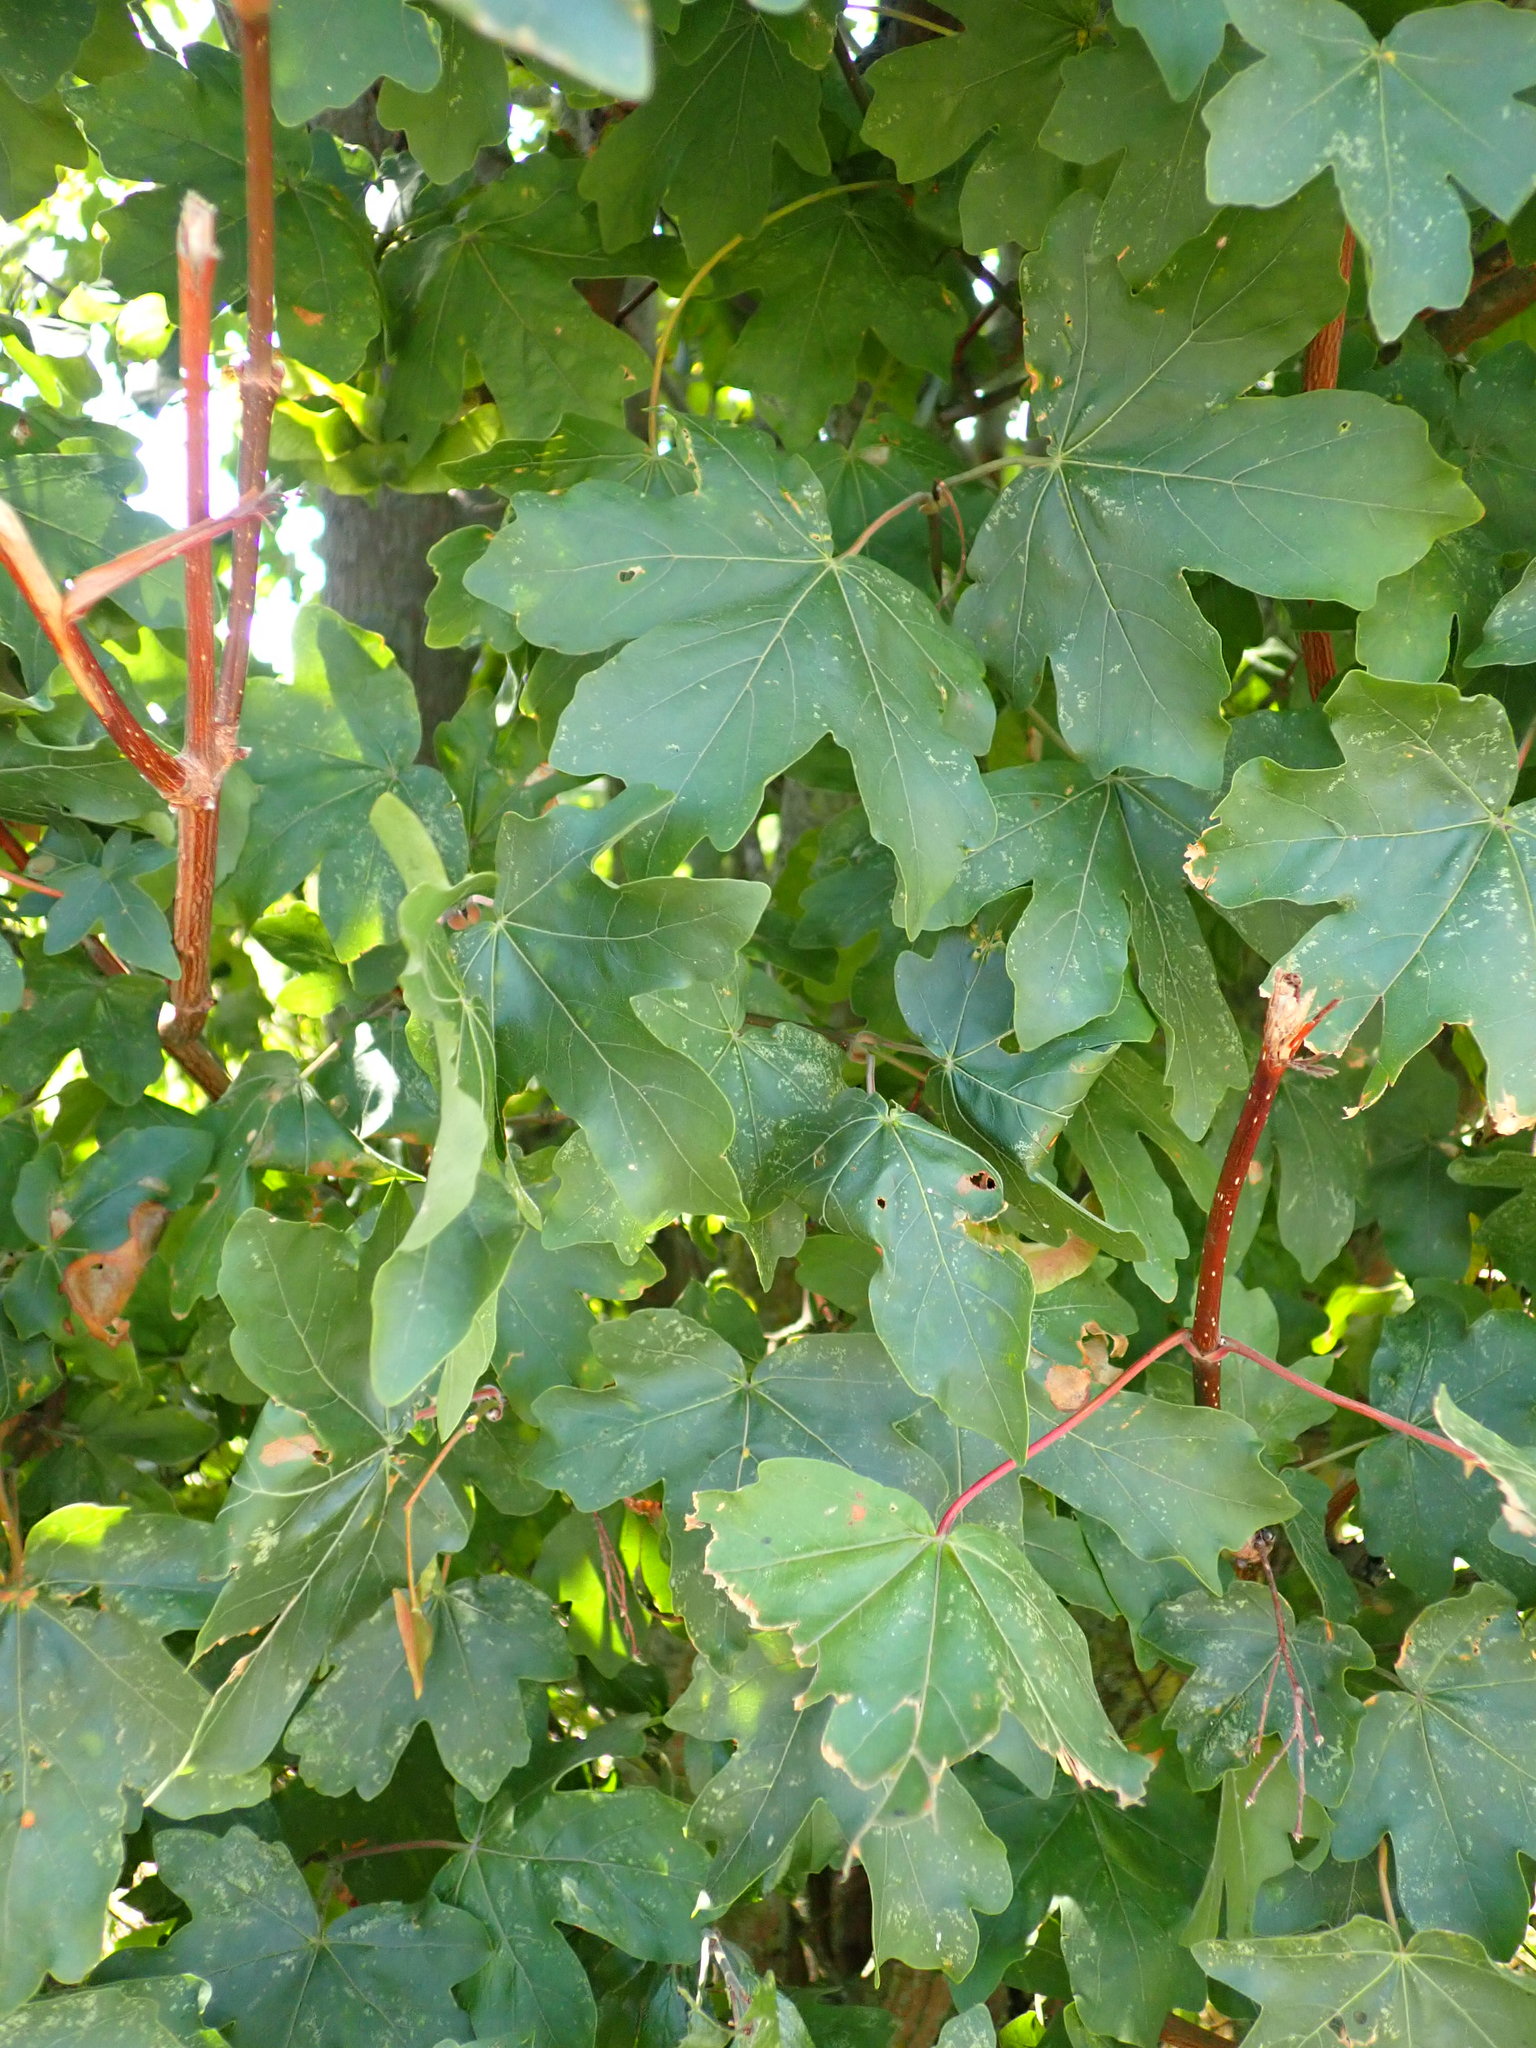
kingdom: Plantae
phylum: Tracheophyta
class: Magnoliopsida
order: Sapindales
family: Sapindaceae
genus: Acer
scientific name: Acer campestre
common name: Field maple
